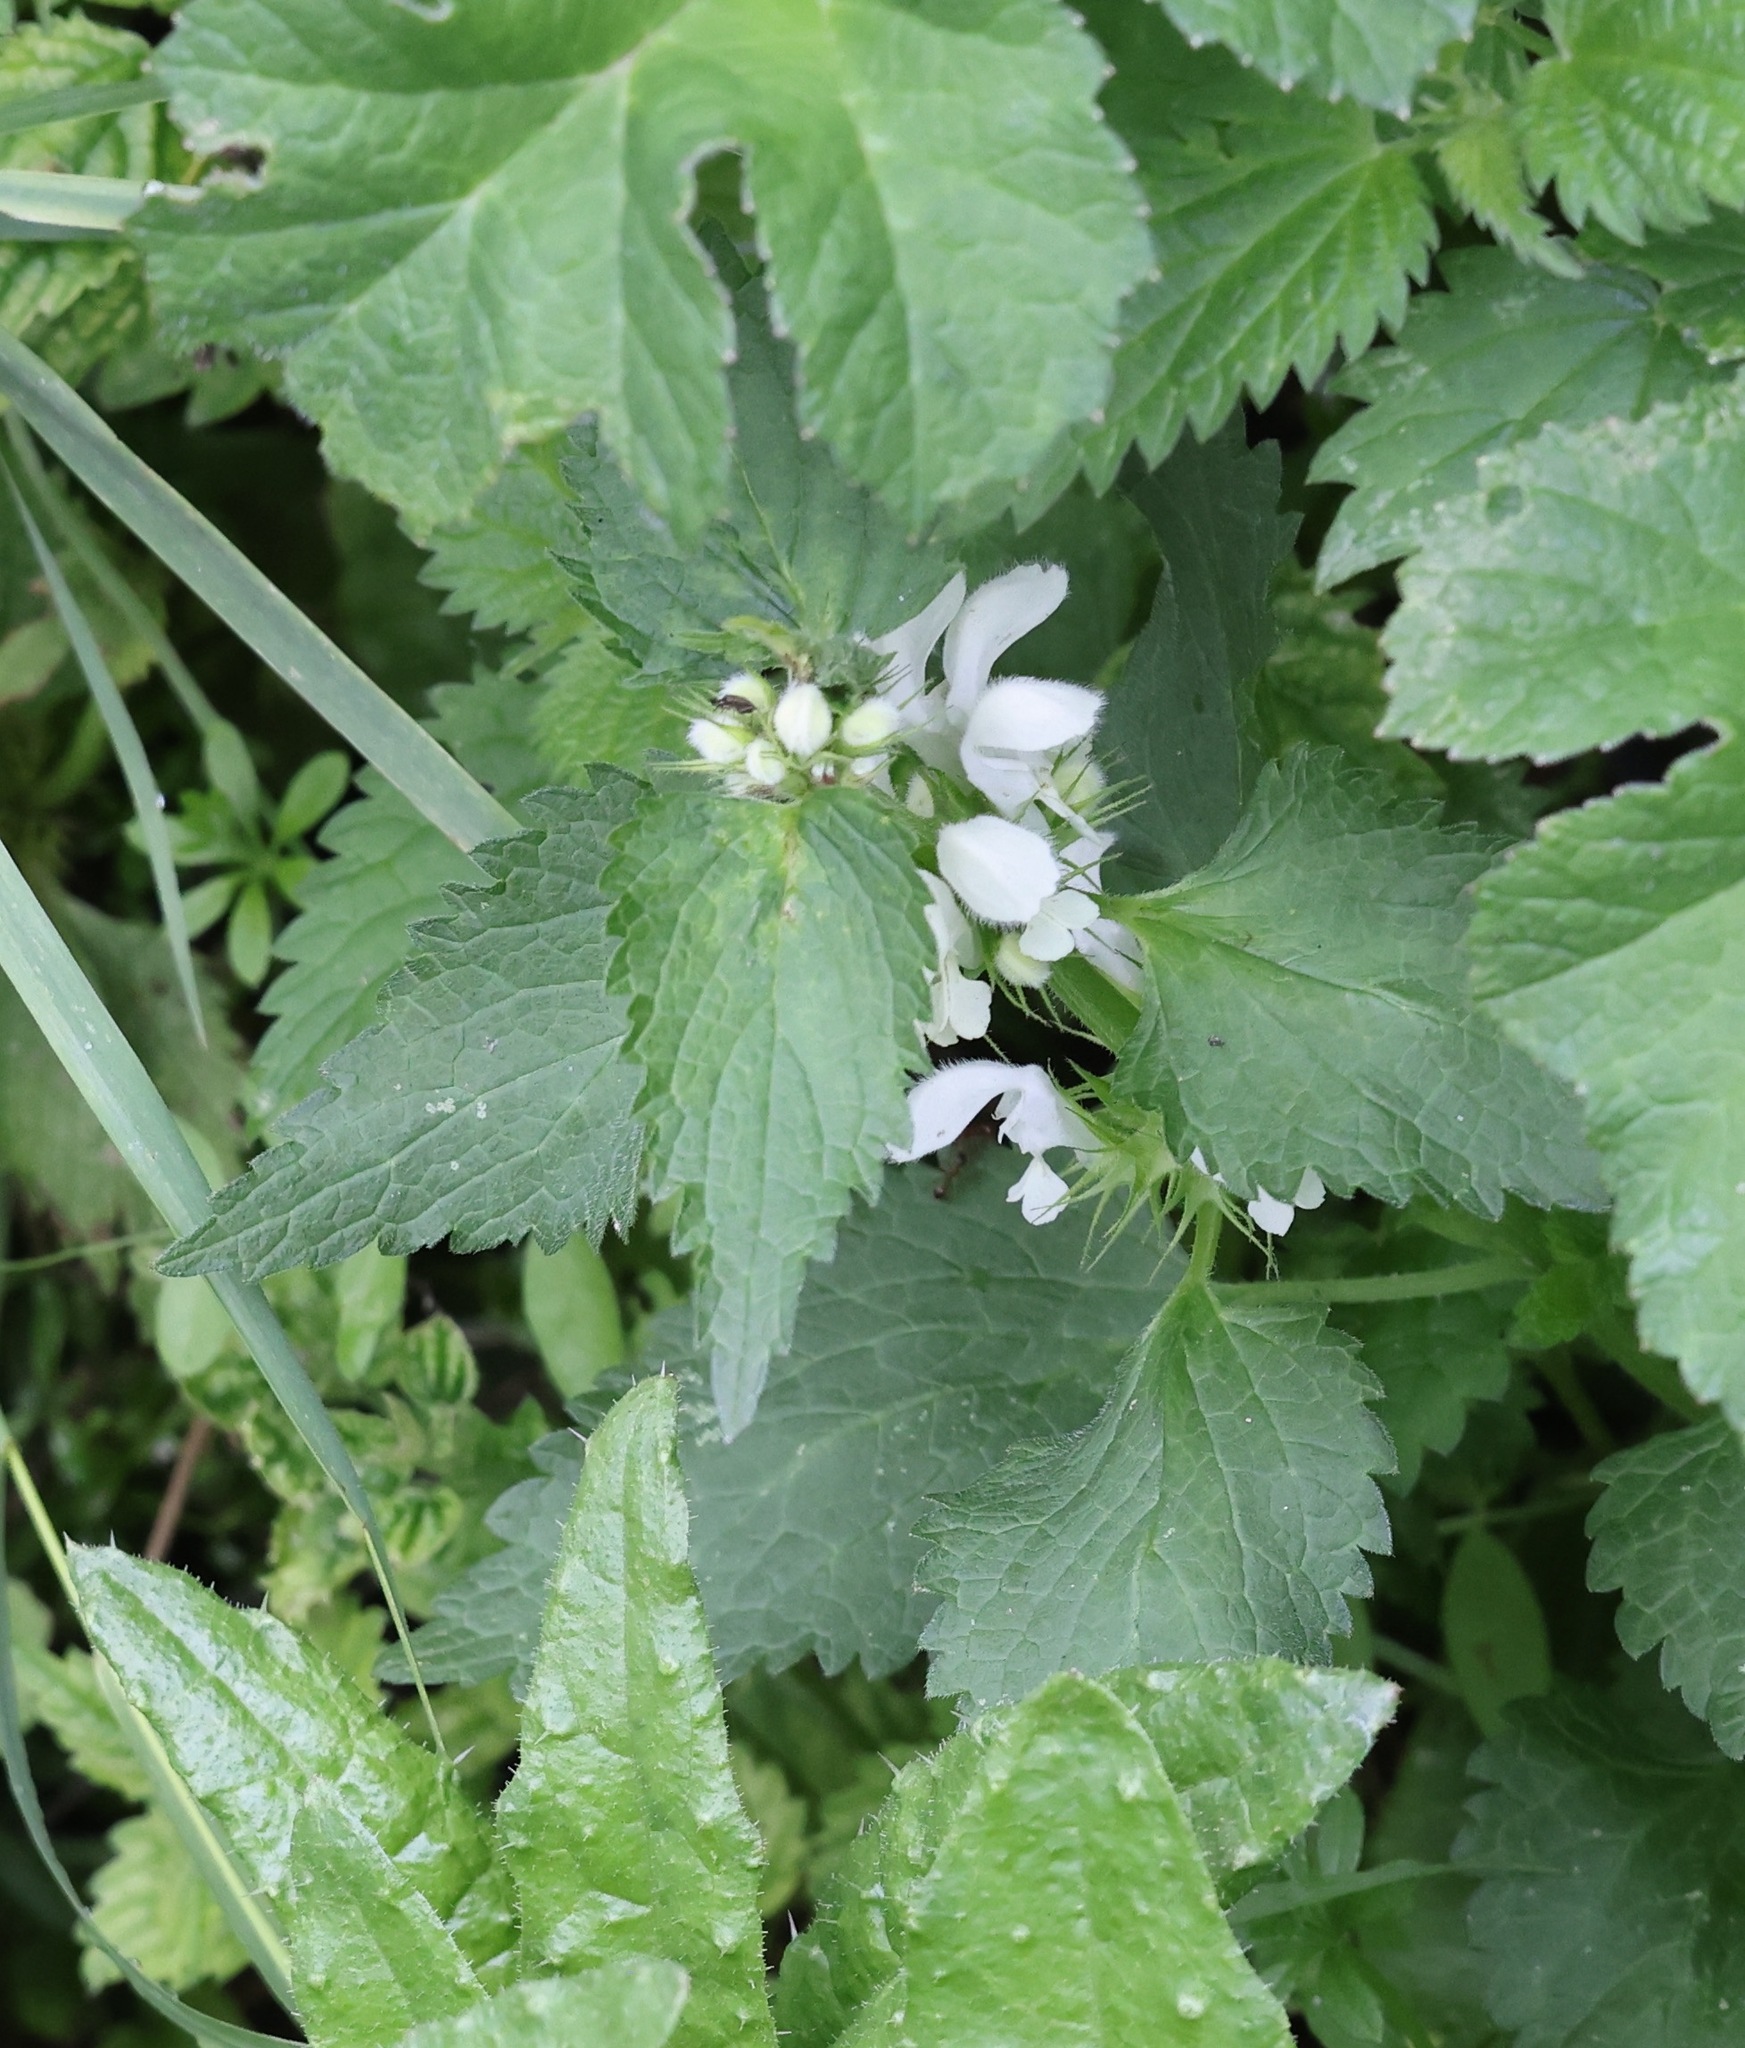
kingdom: Plantae
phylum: Tracheophyta
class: Magnoliopsida
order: Lamiales
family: Lamiaceae
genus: Lamium
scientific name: Lamium album
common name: White dead-nettle
